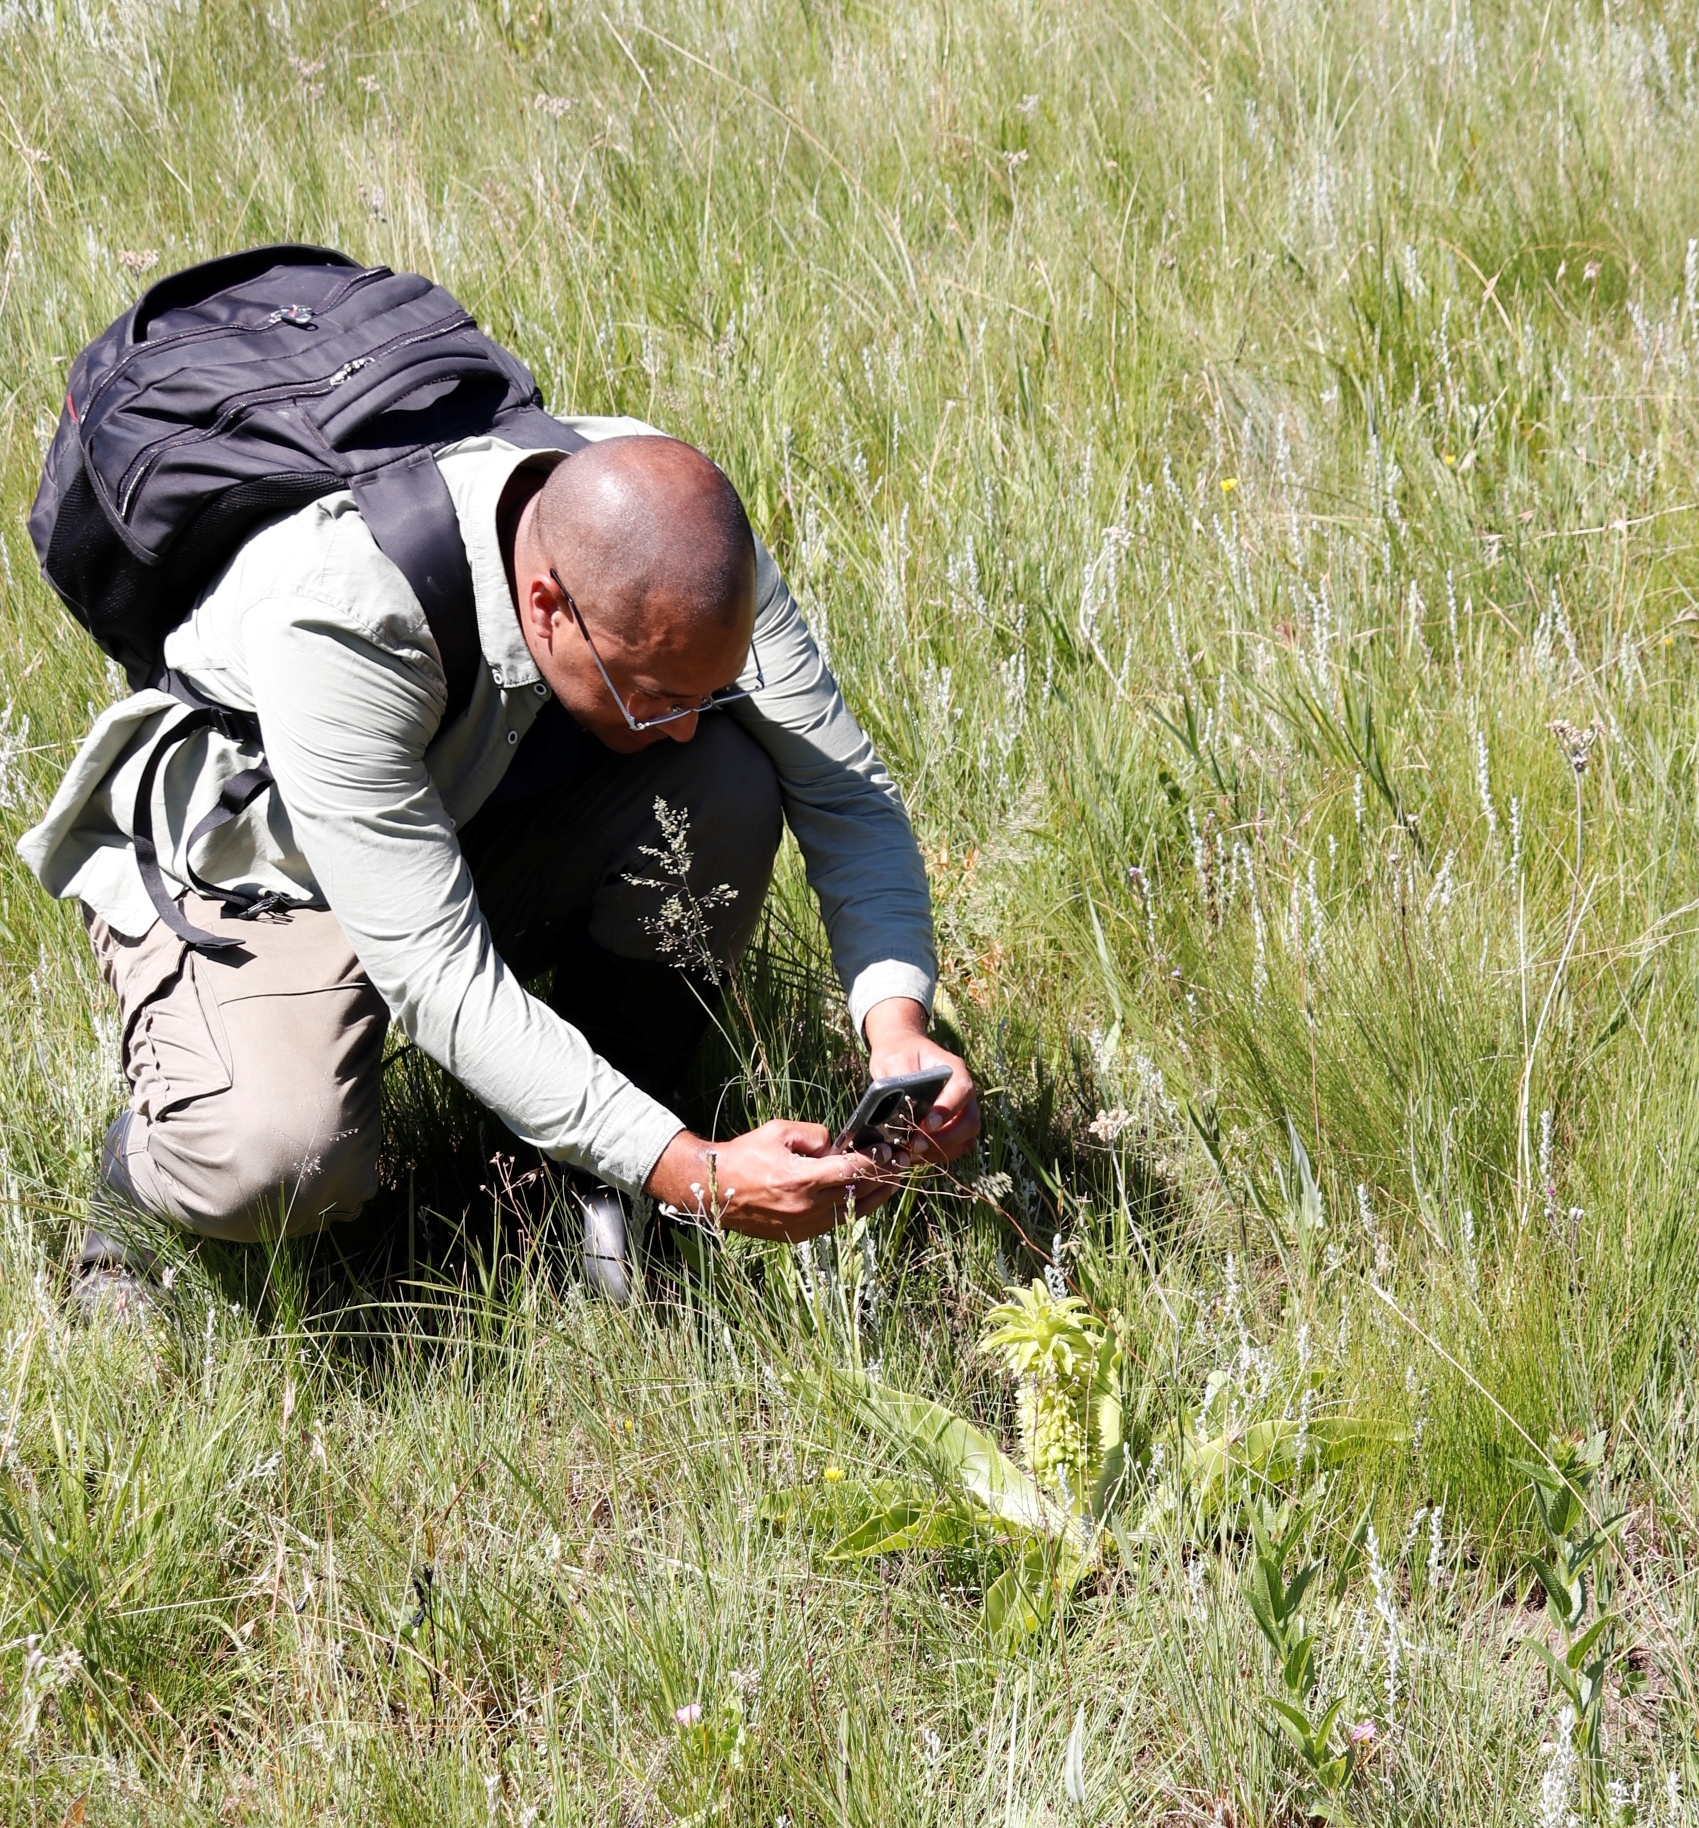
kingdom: Plantae
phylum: Tracheophyta
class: Liliopsida
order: Asparagales
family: Asparagaceae
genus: Eucomis
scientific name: Eucomis autumnalis
